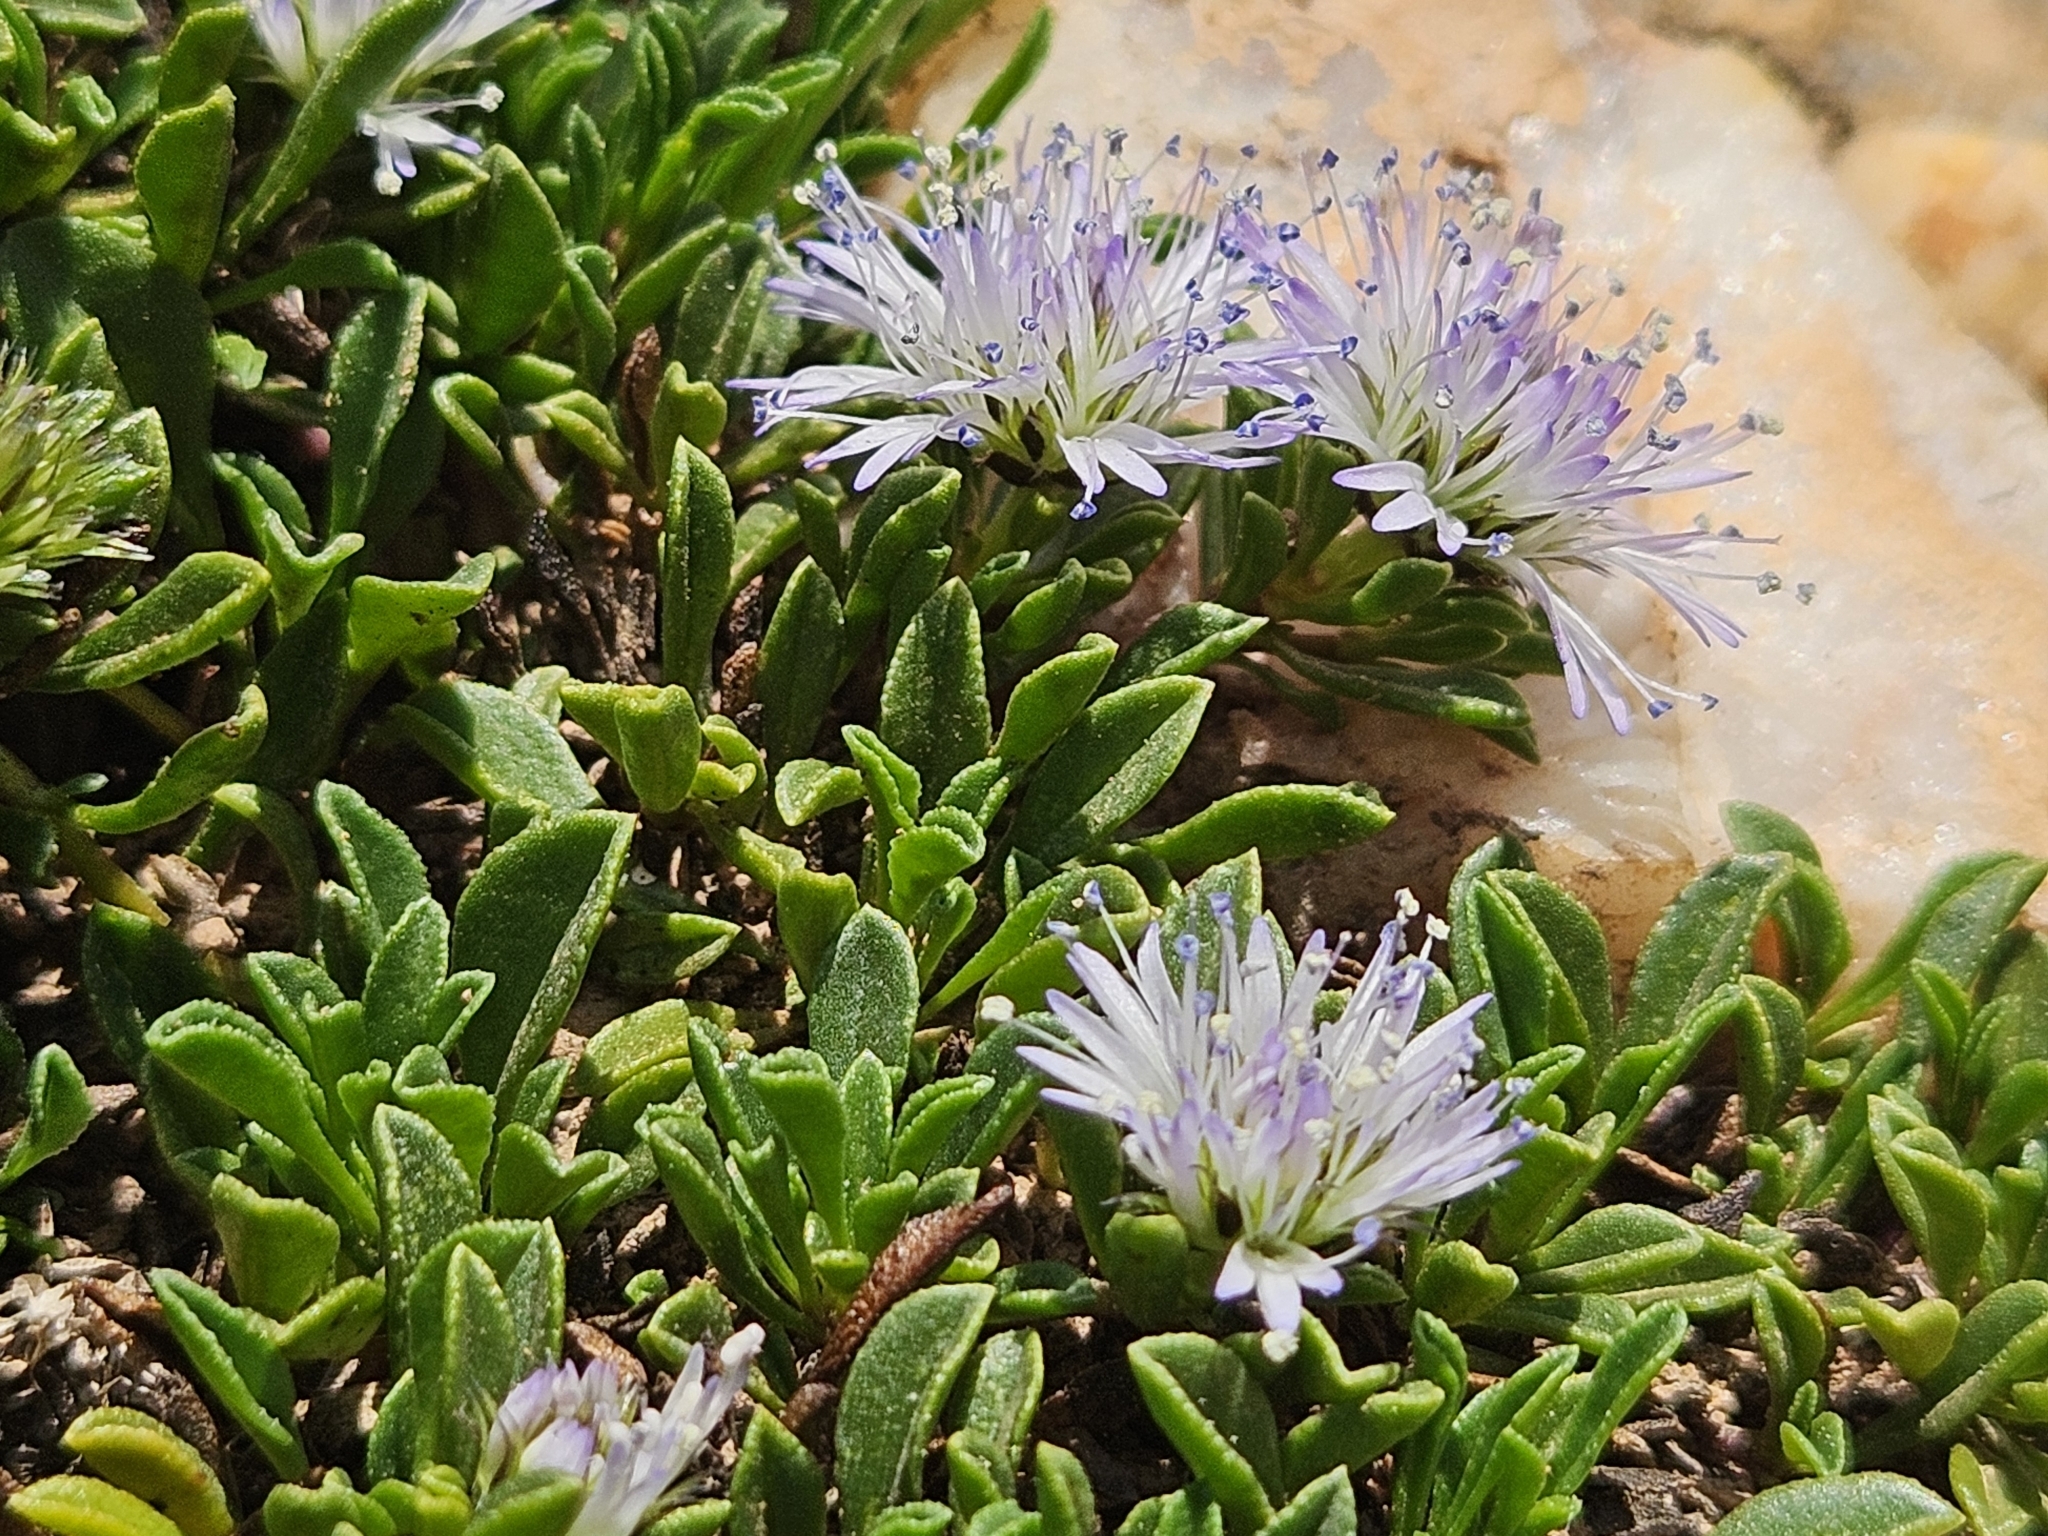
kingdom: Plantae
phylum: Tracheophyta
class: Magnoliopsida
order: Lamiales
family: Plantaginaceae
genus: Globularia
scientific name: Globularia repens
